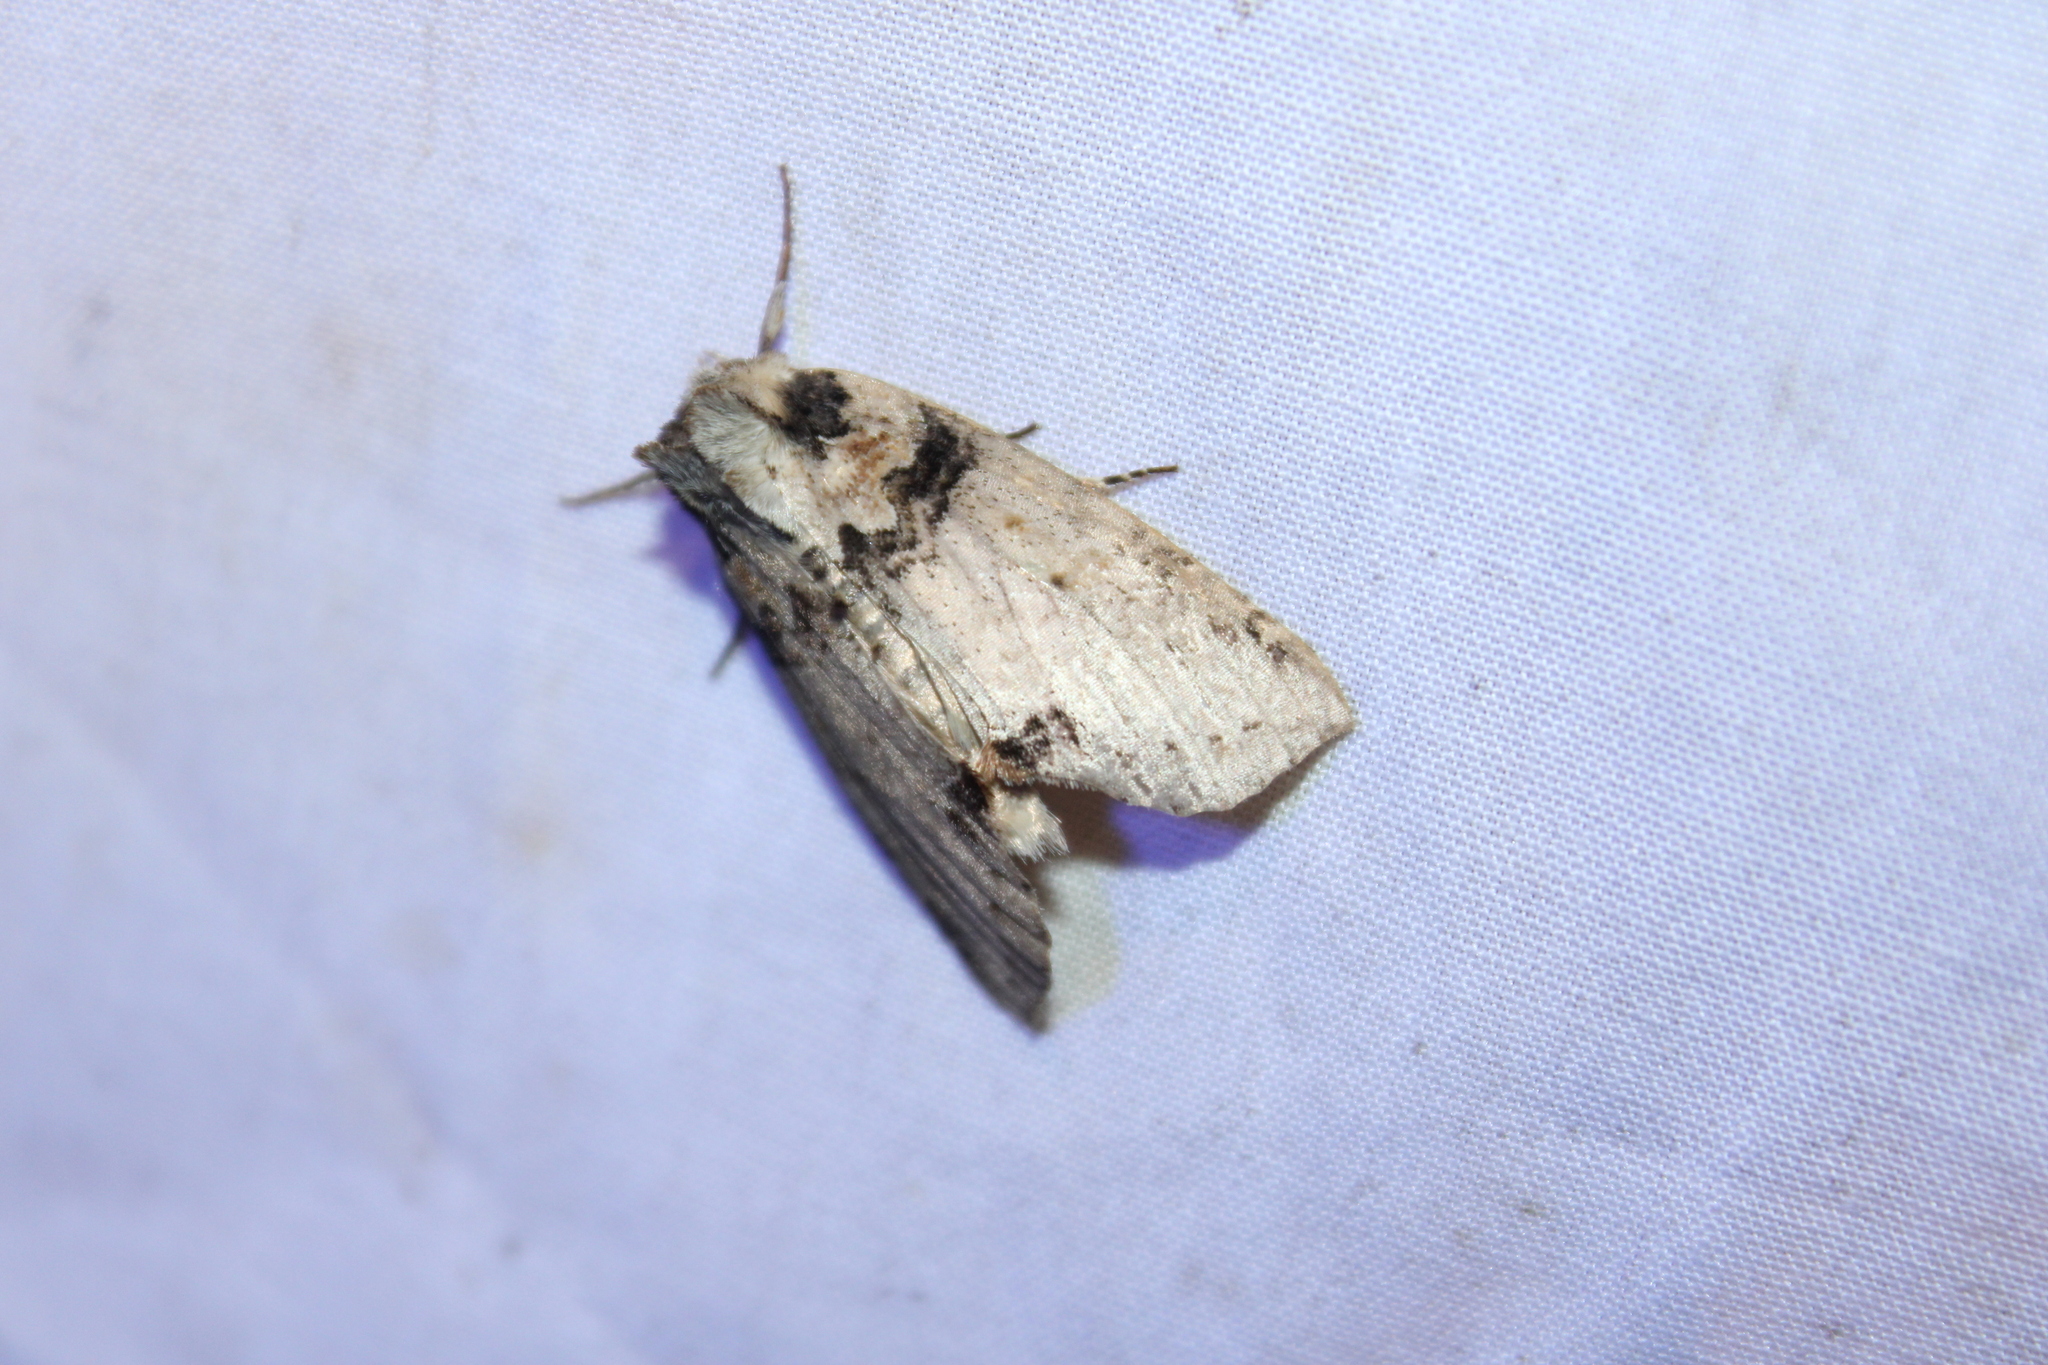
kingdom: Animalia
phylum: Arthropoda
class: Insecta
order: Lepidoptera
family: Drepanidae
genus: Pseudothyatira
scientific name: Pseudothyatira cymatophoroides
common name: Tufted thyatirid moth
